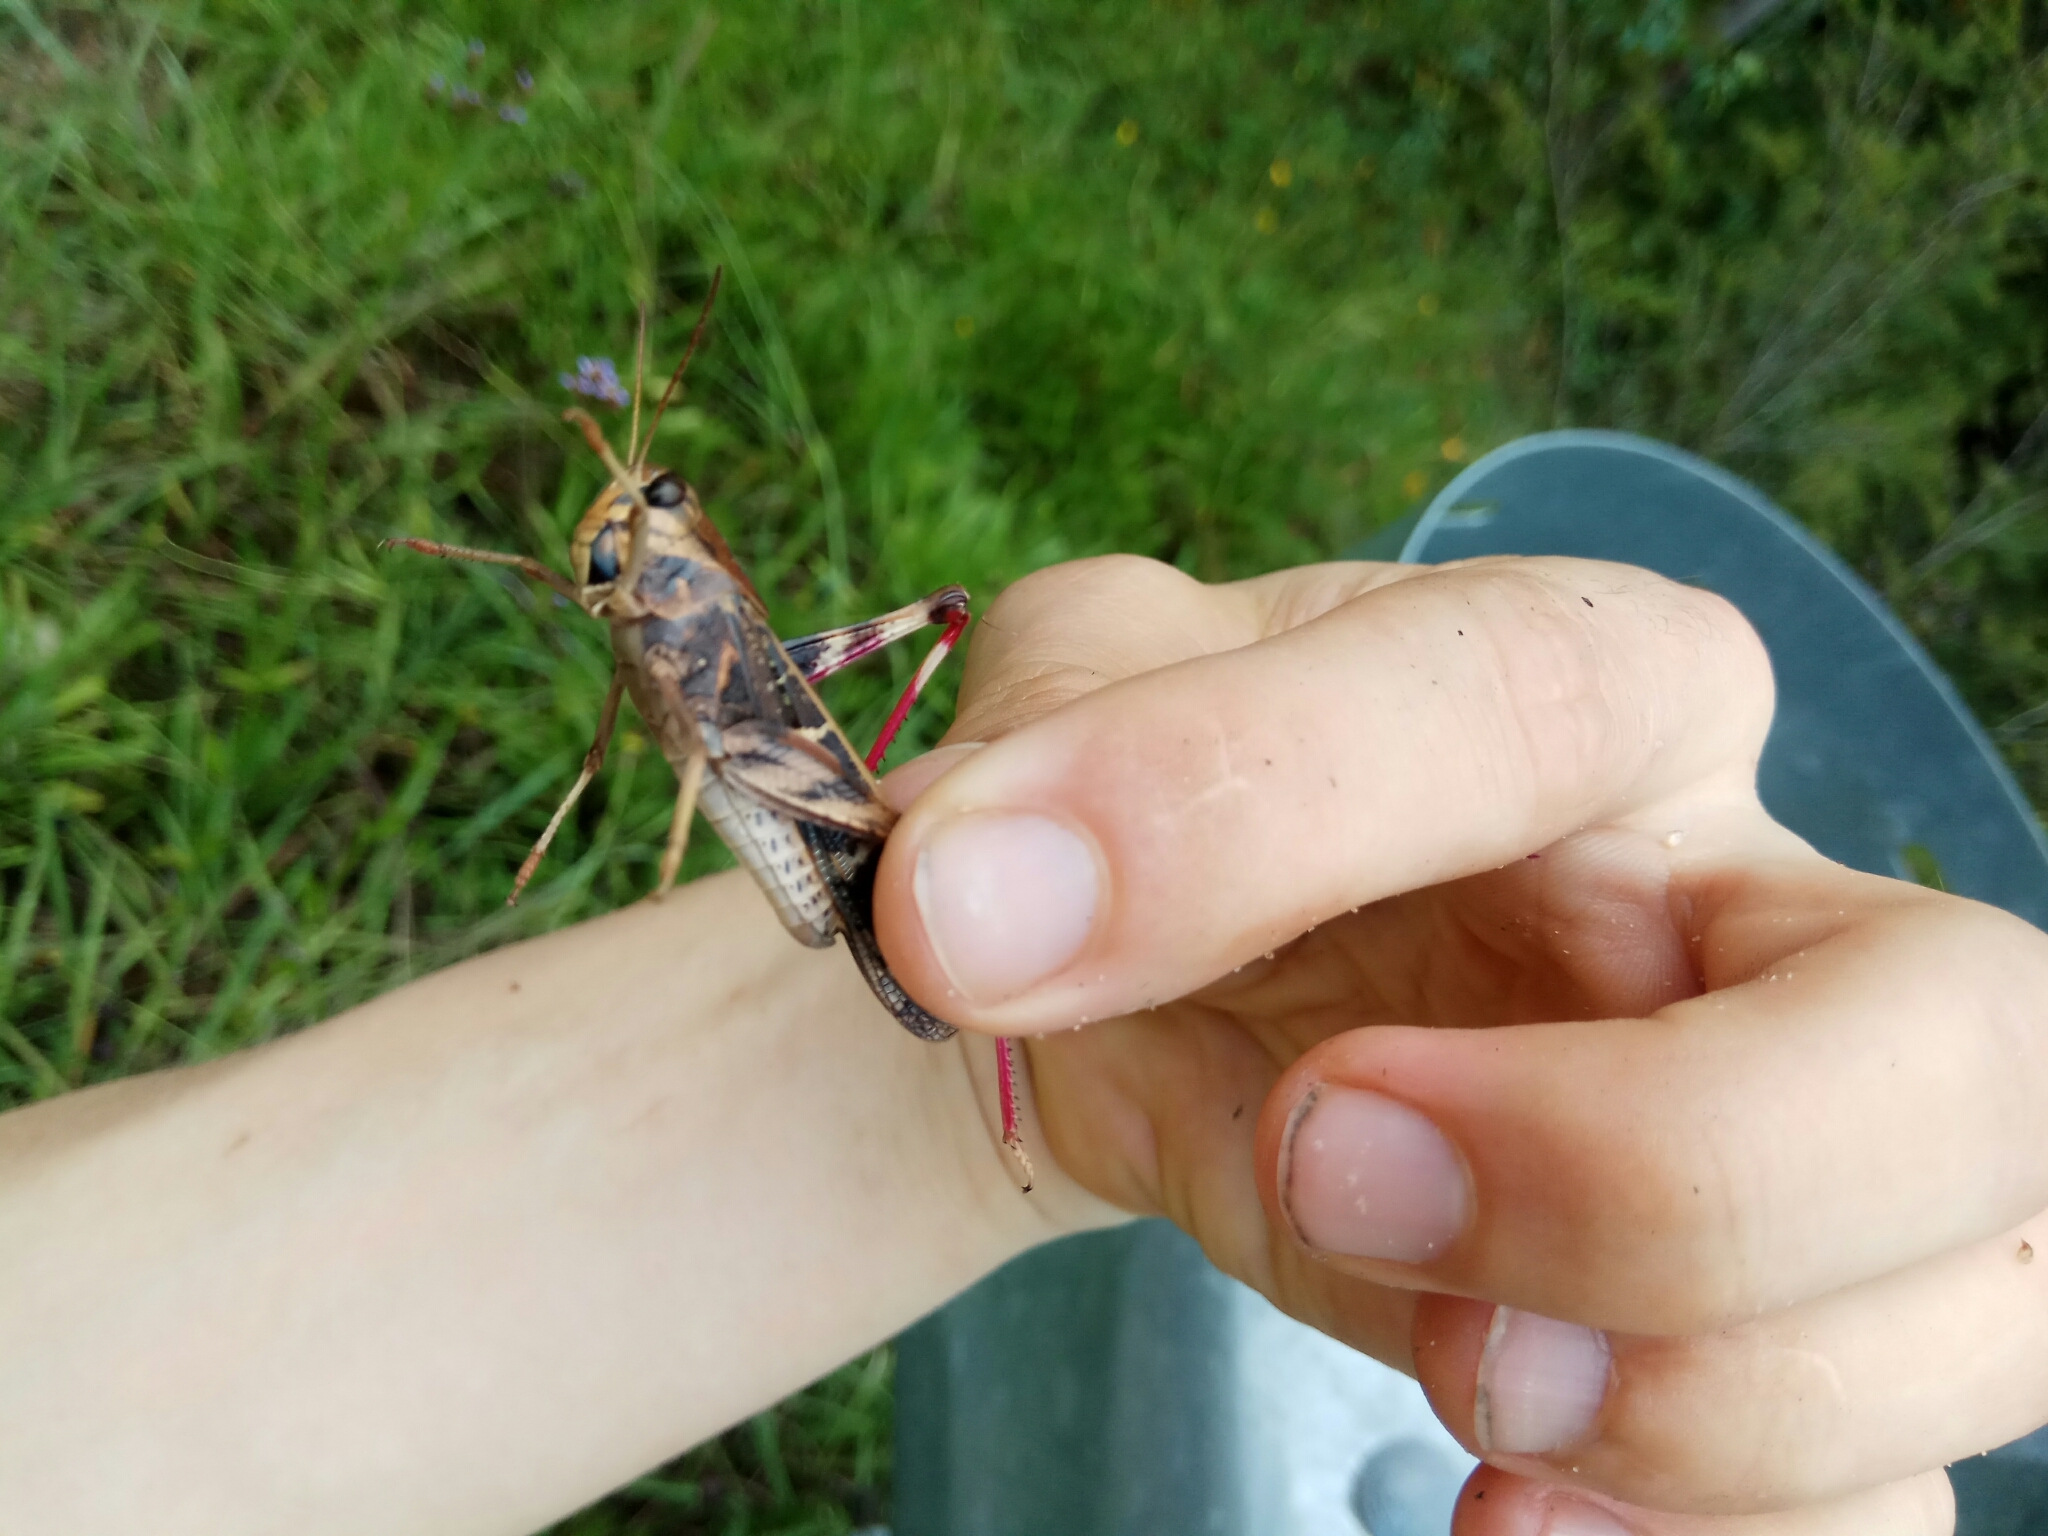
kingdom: Animalia
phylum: Arthropoda
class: Insecta
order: Orthoptera
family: Acrididae
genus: Gastrimargus
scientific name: Gastrimargus musicus
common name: Yellow-winged locust
